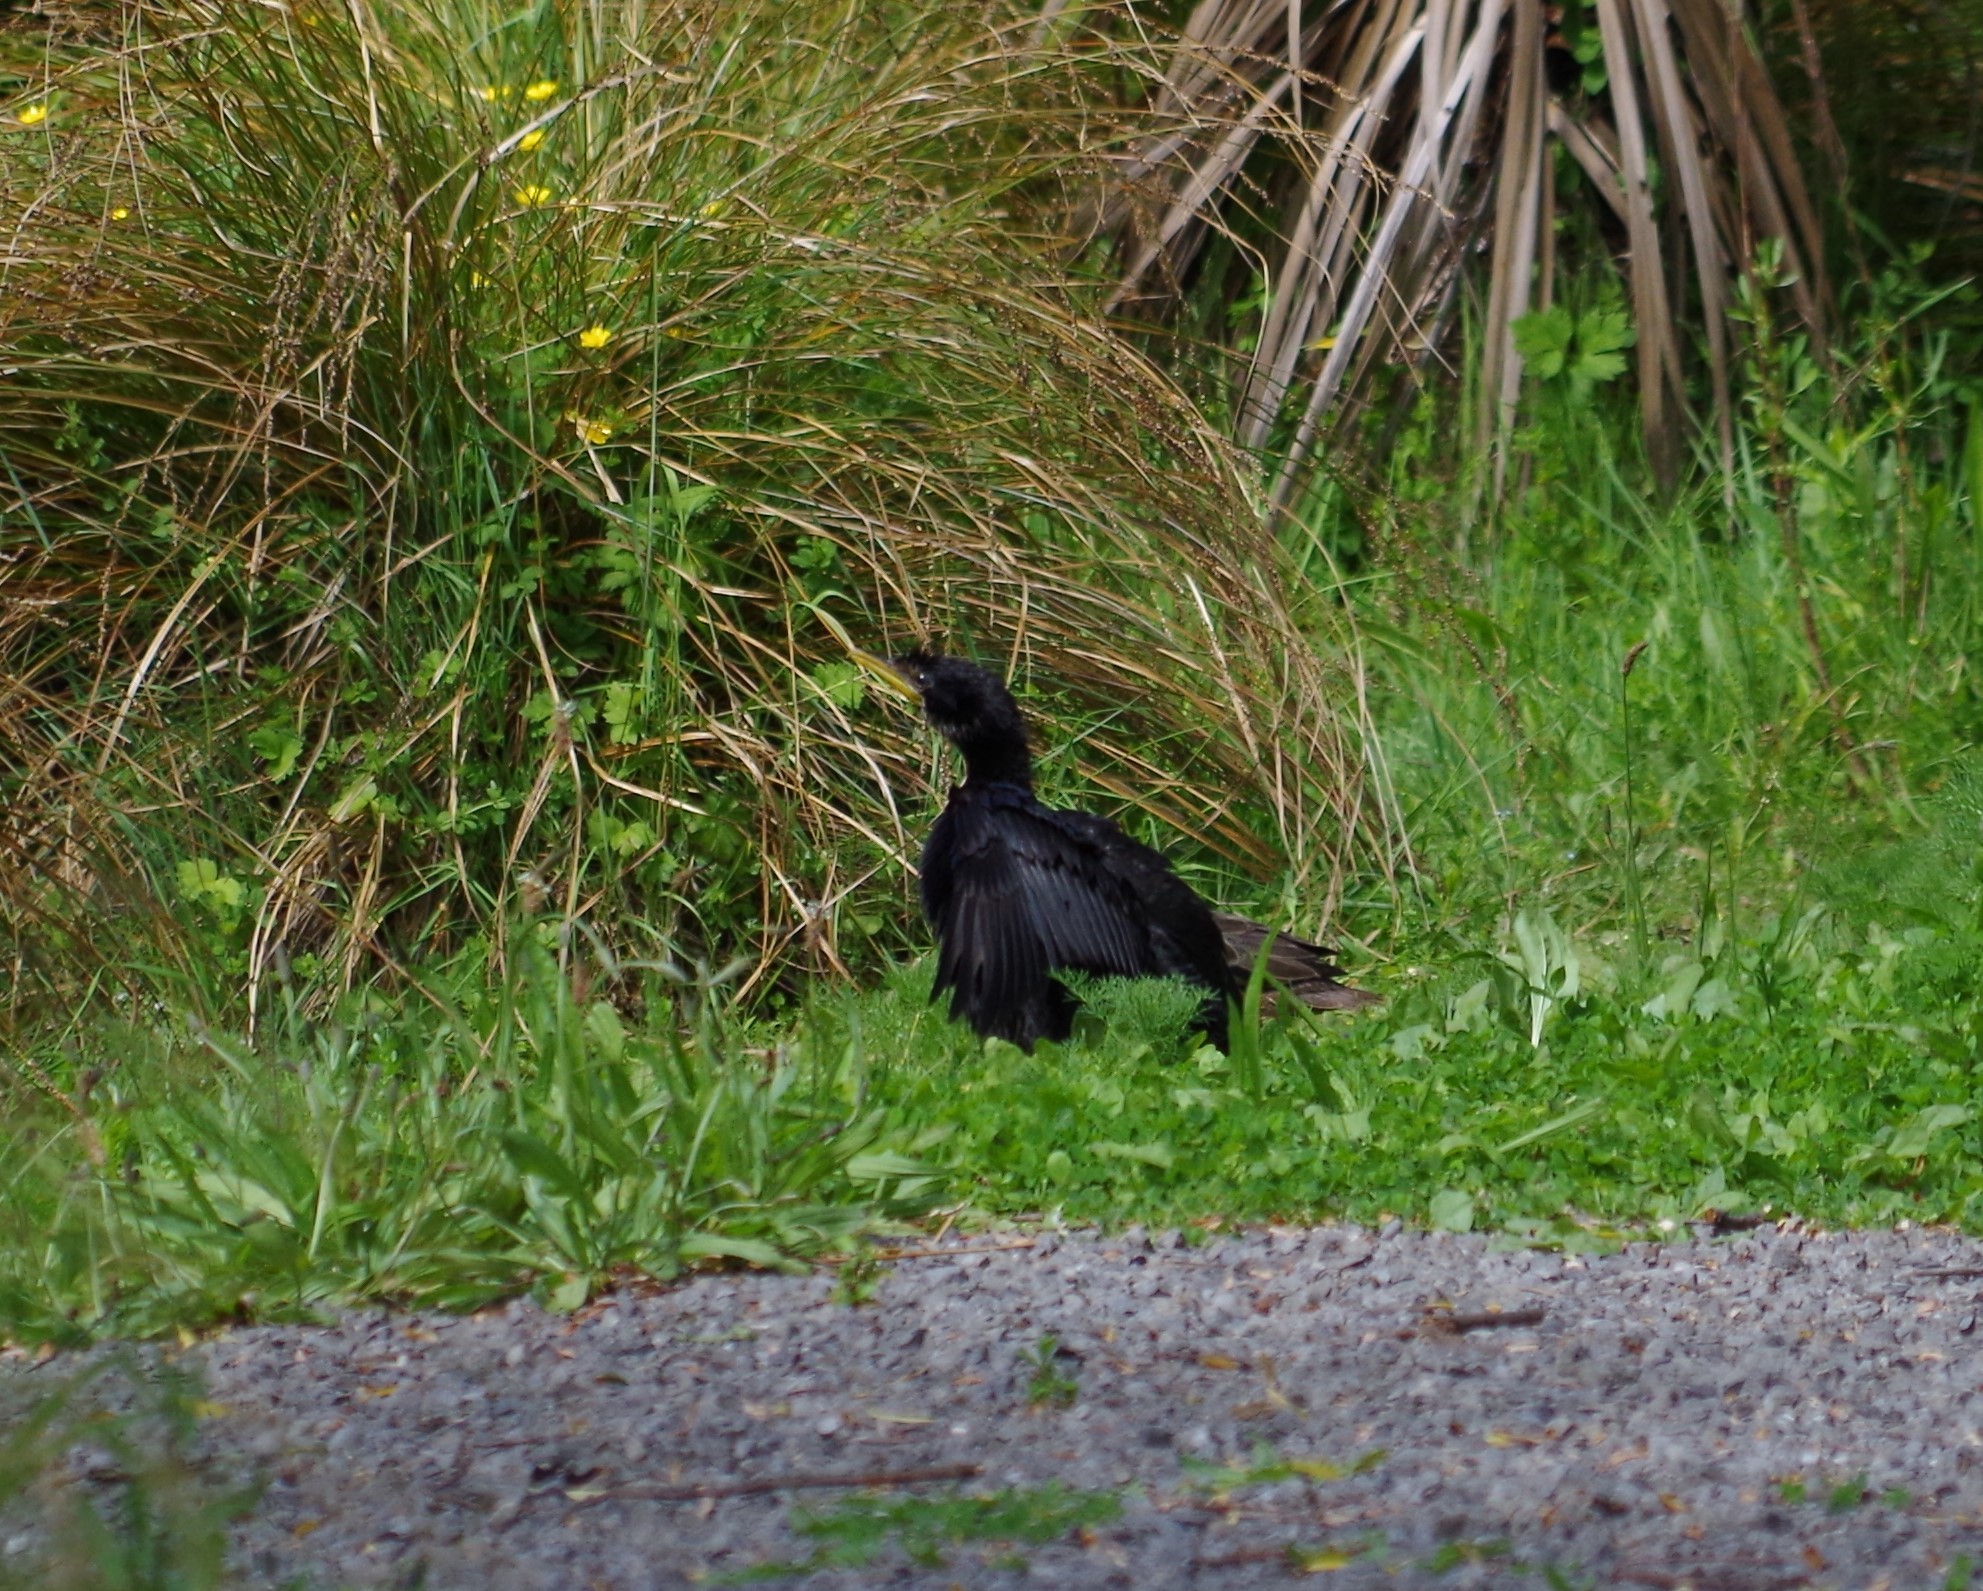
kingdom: Animalia
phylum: Chordata
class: Aves
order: Suliformes
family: Phalacrocoracidae
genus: Microcarbo
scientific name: Microcarbo melanoleucos
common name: Little pied cormorant
